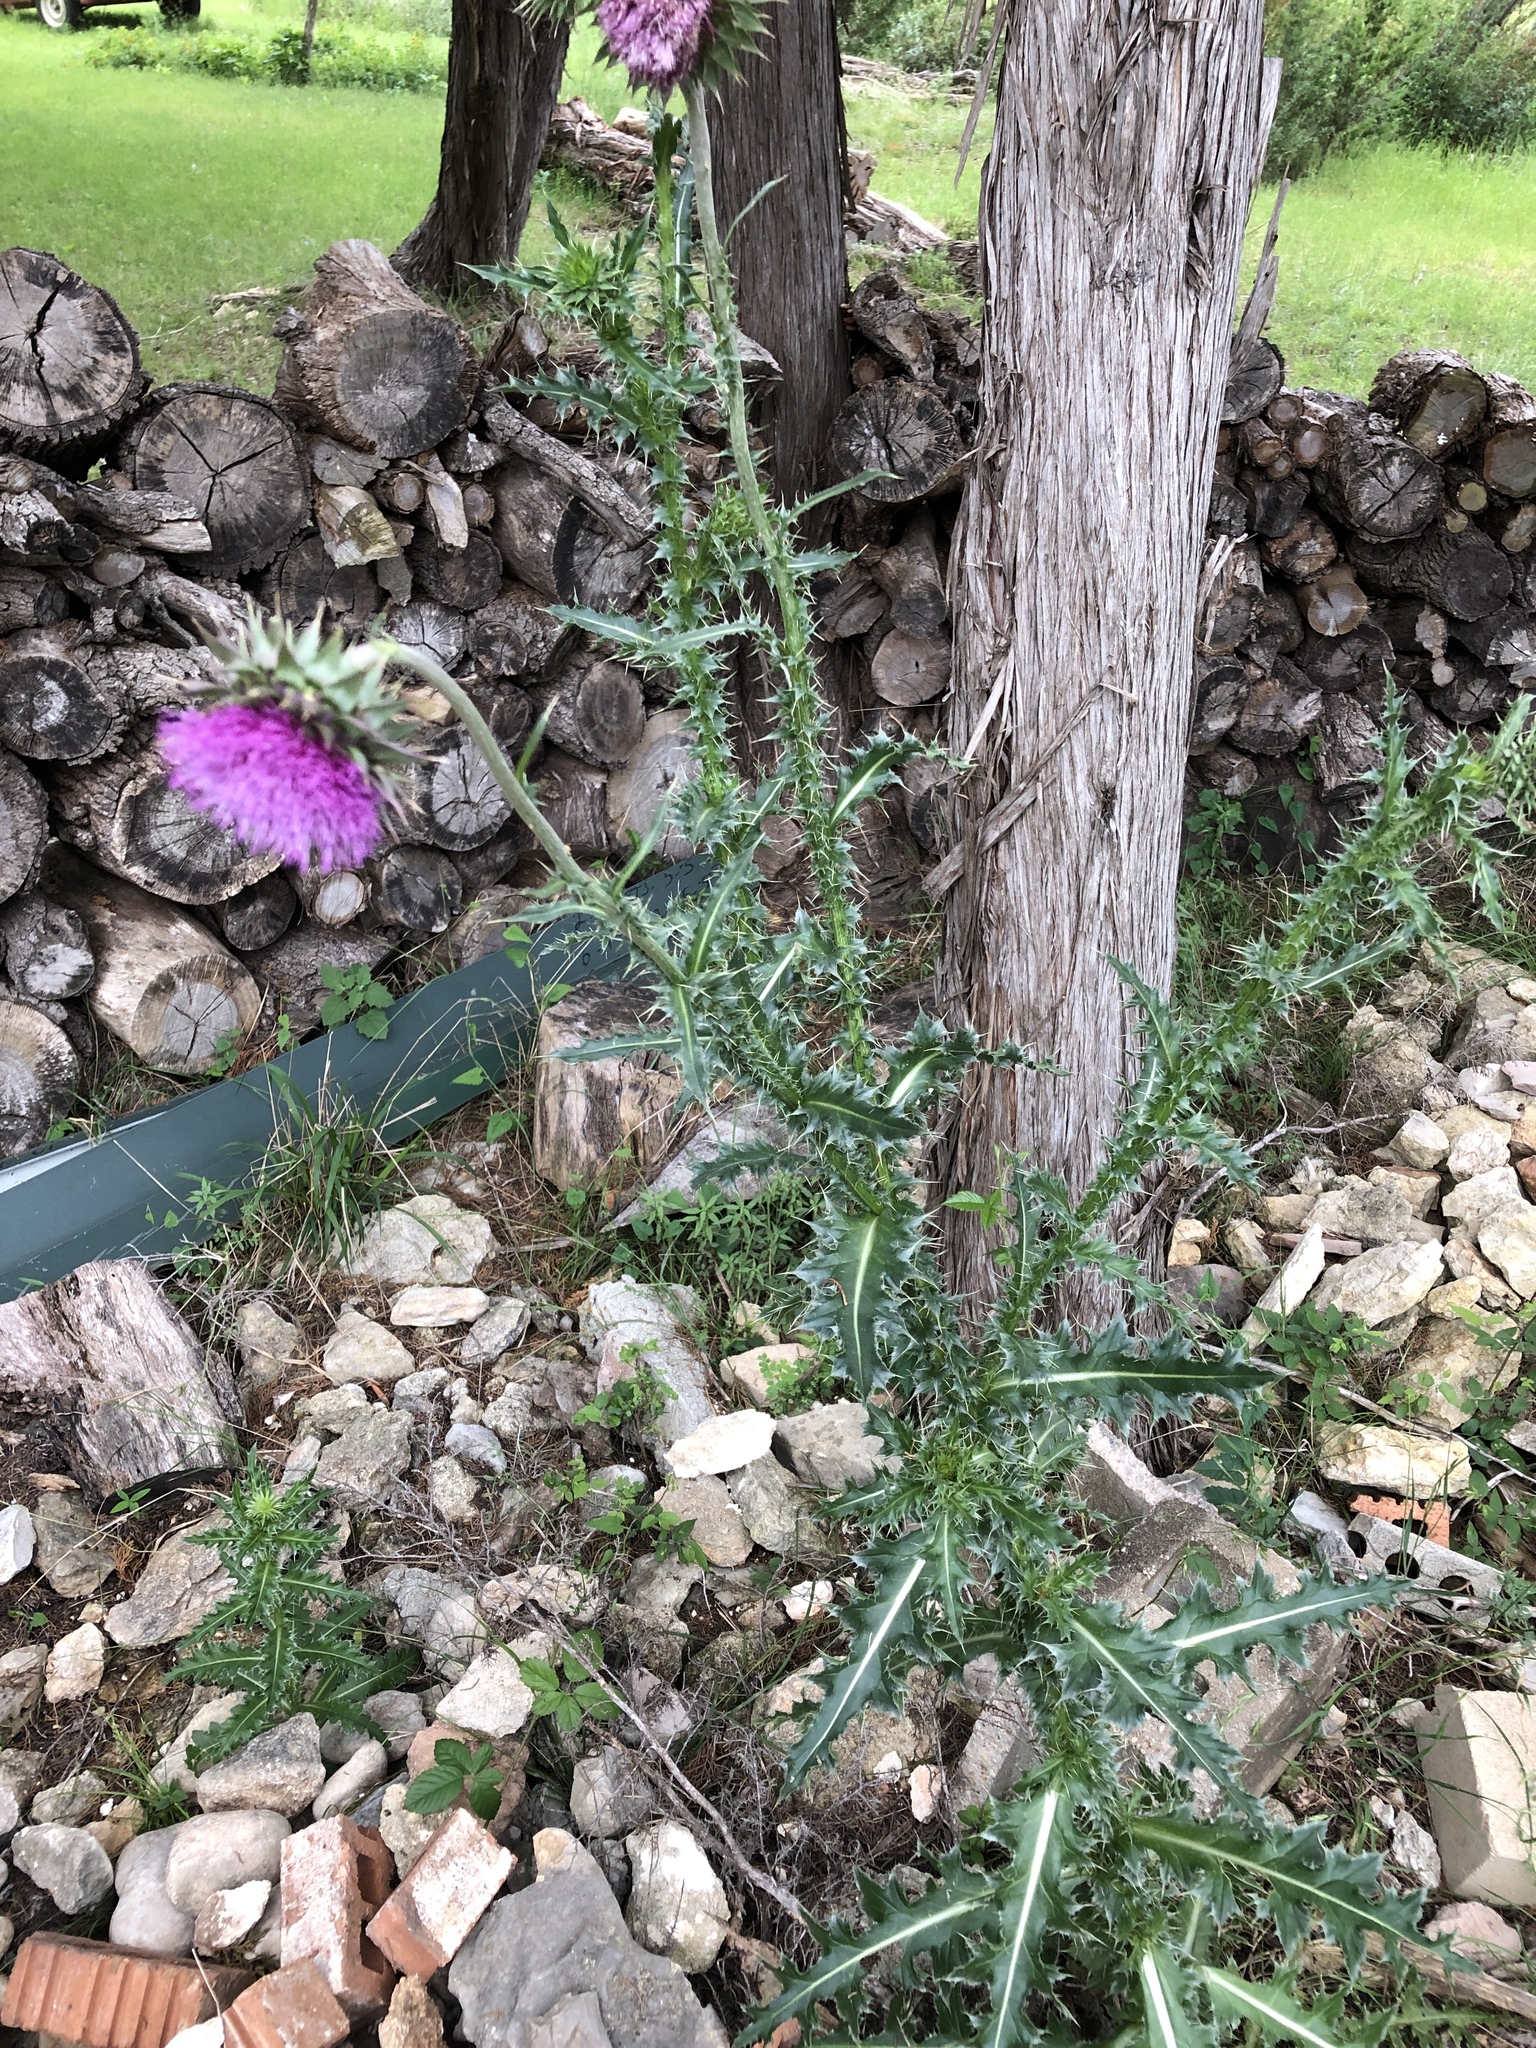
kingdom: Plantae
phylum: Tracheophyta
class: Magnoliopsida
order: Asterales
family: Asteraceae
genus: Carduus
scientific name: Carduus nutans
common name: Musk thistle
